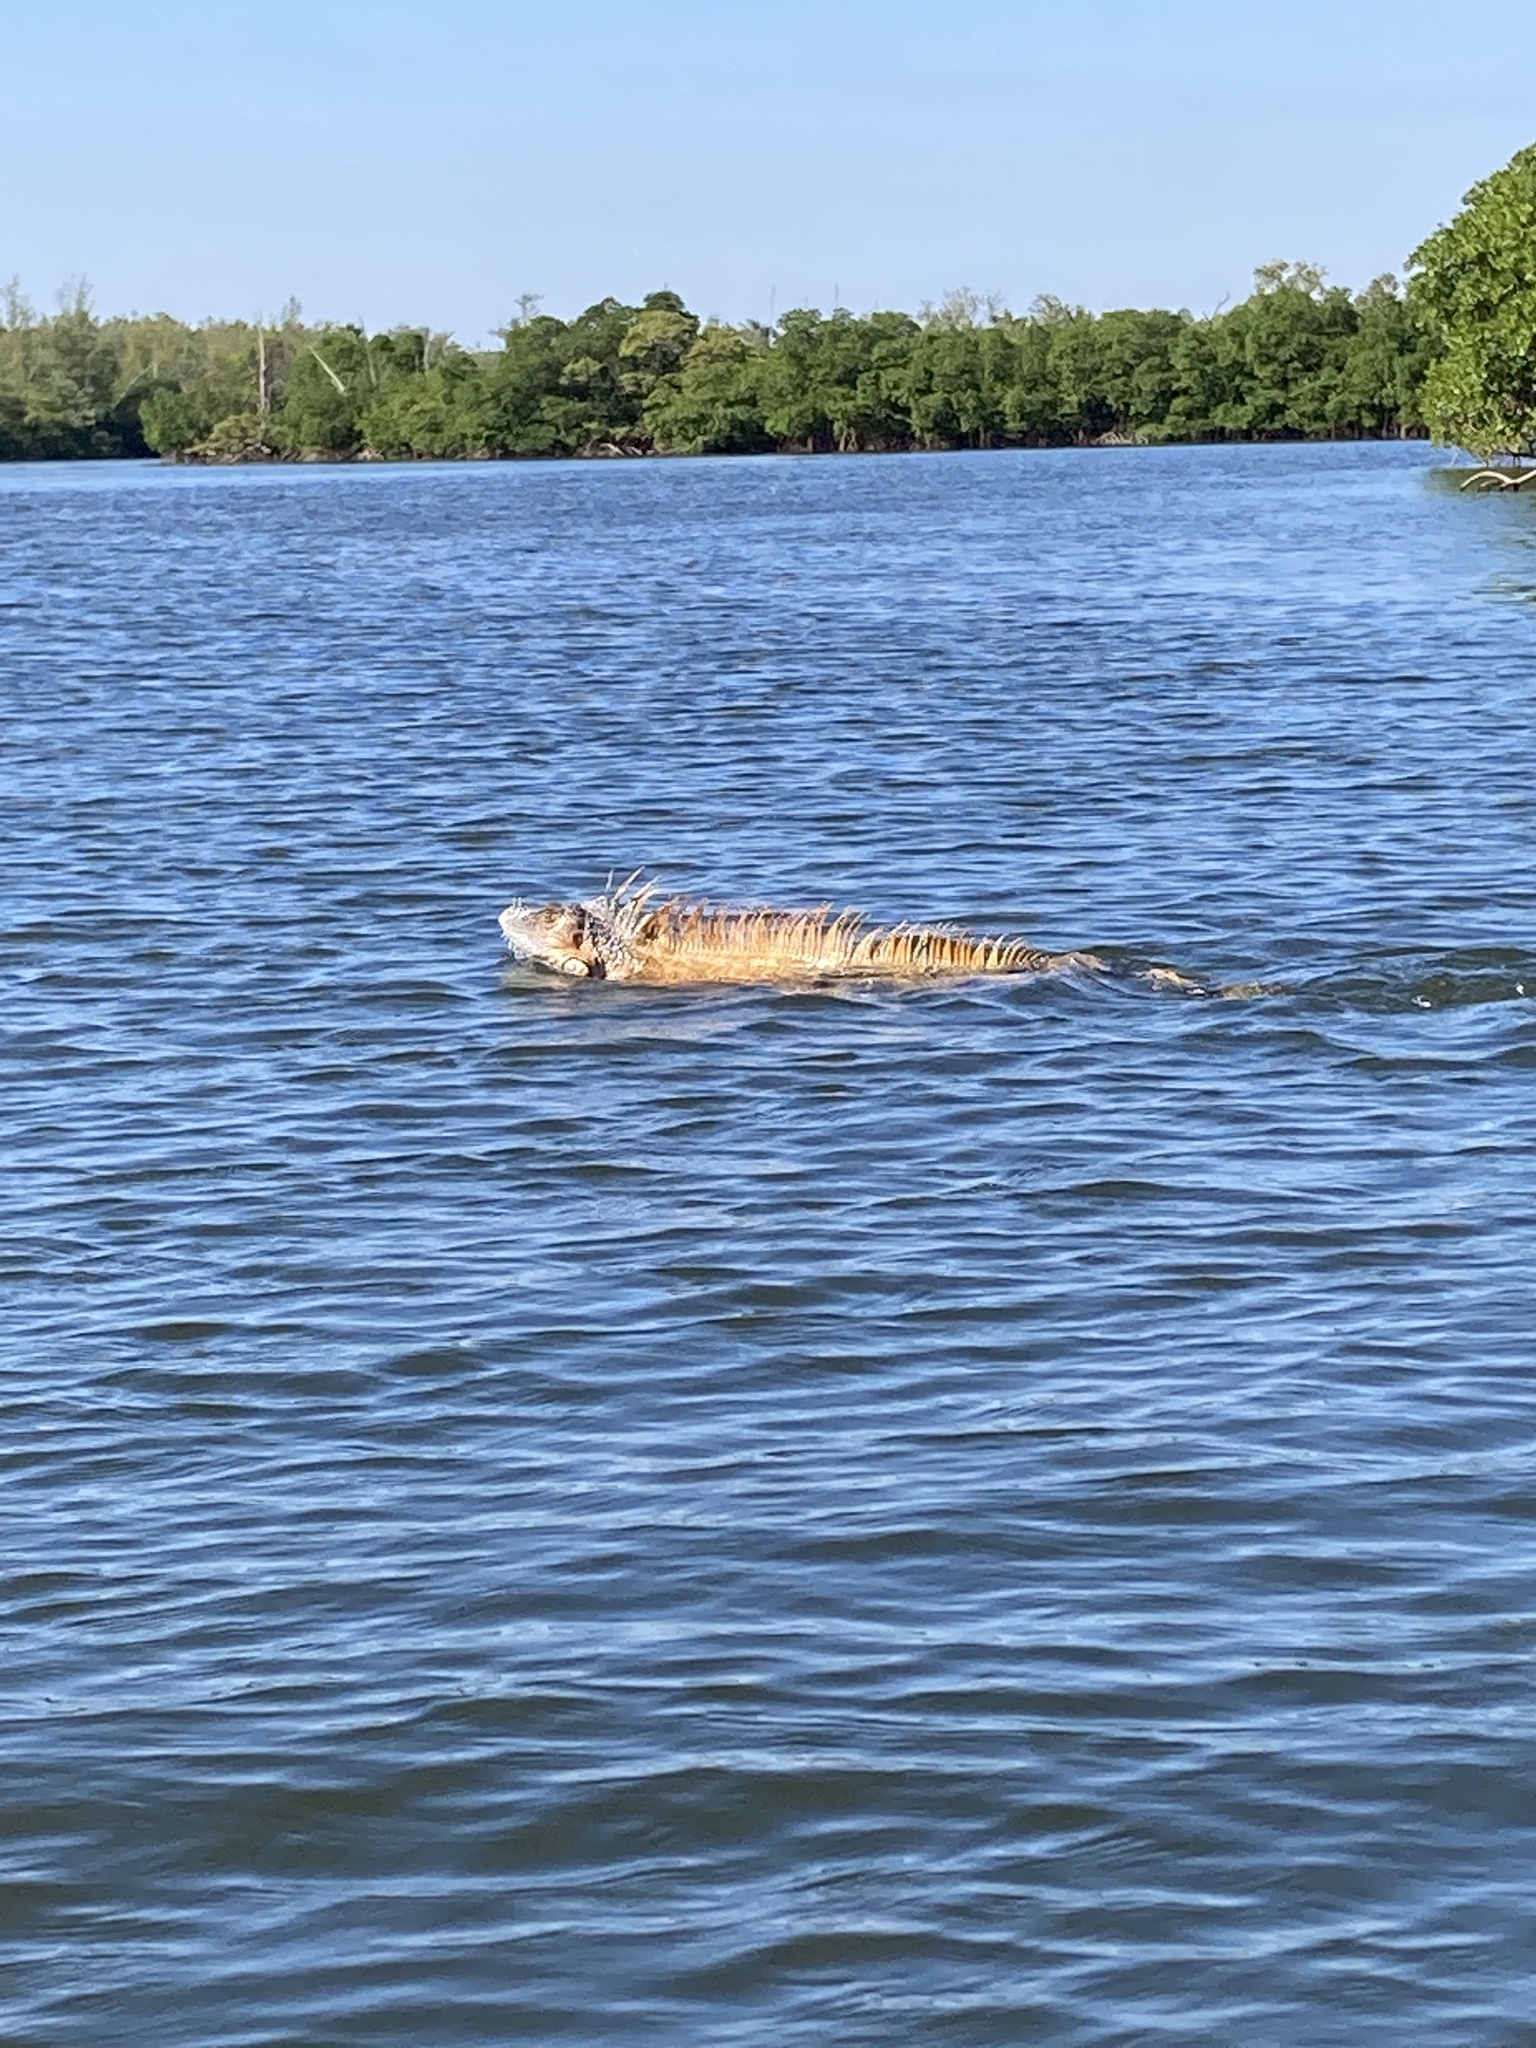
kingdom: Animalia
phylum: Chordata
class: Squamata
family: Iguanidae
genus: Iguana
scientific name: Iguana iguana
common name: Green iguana
